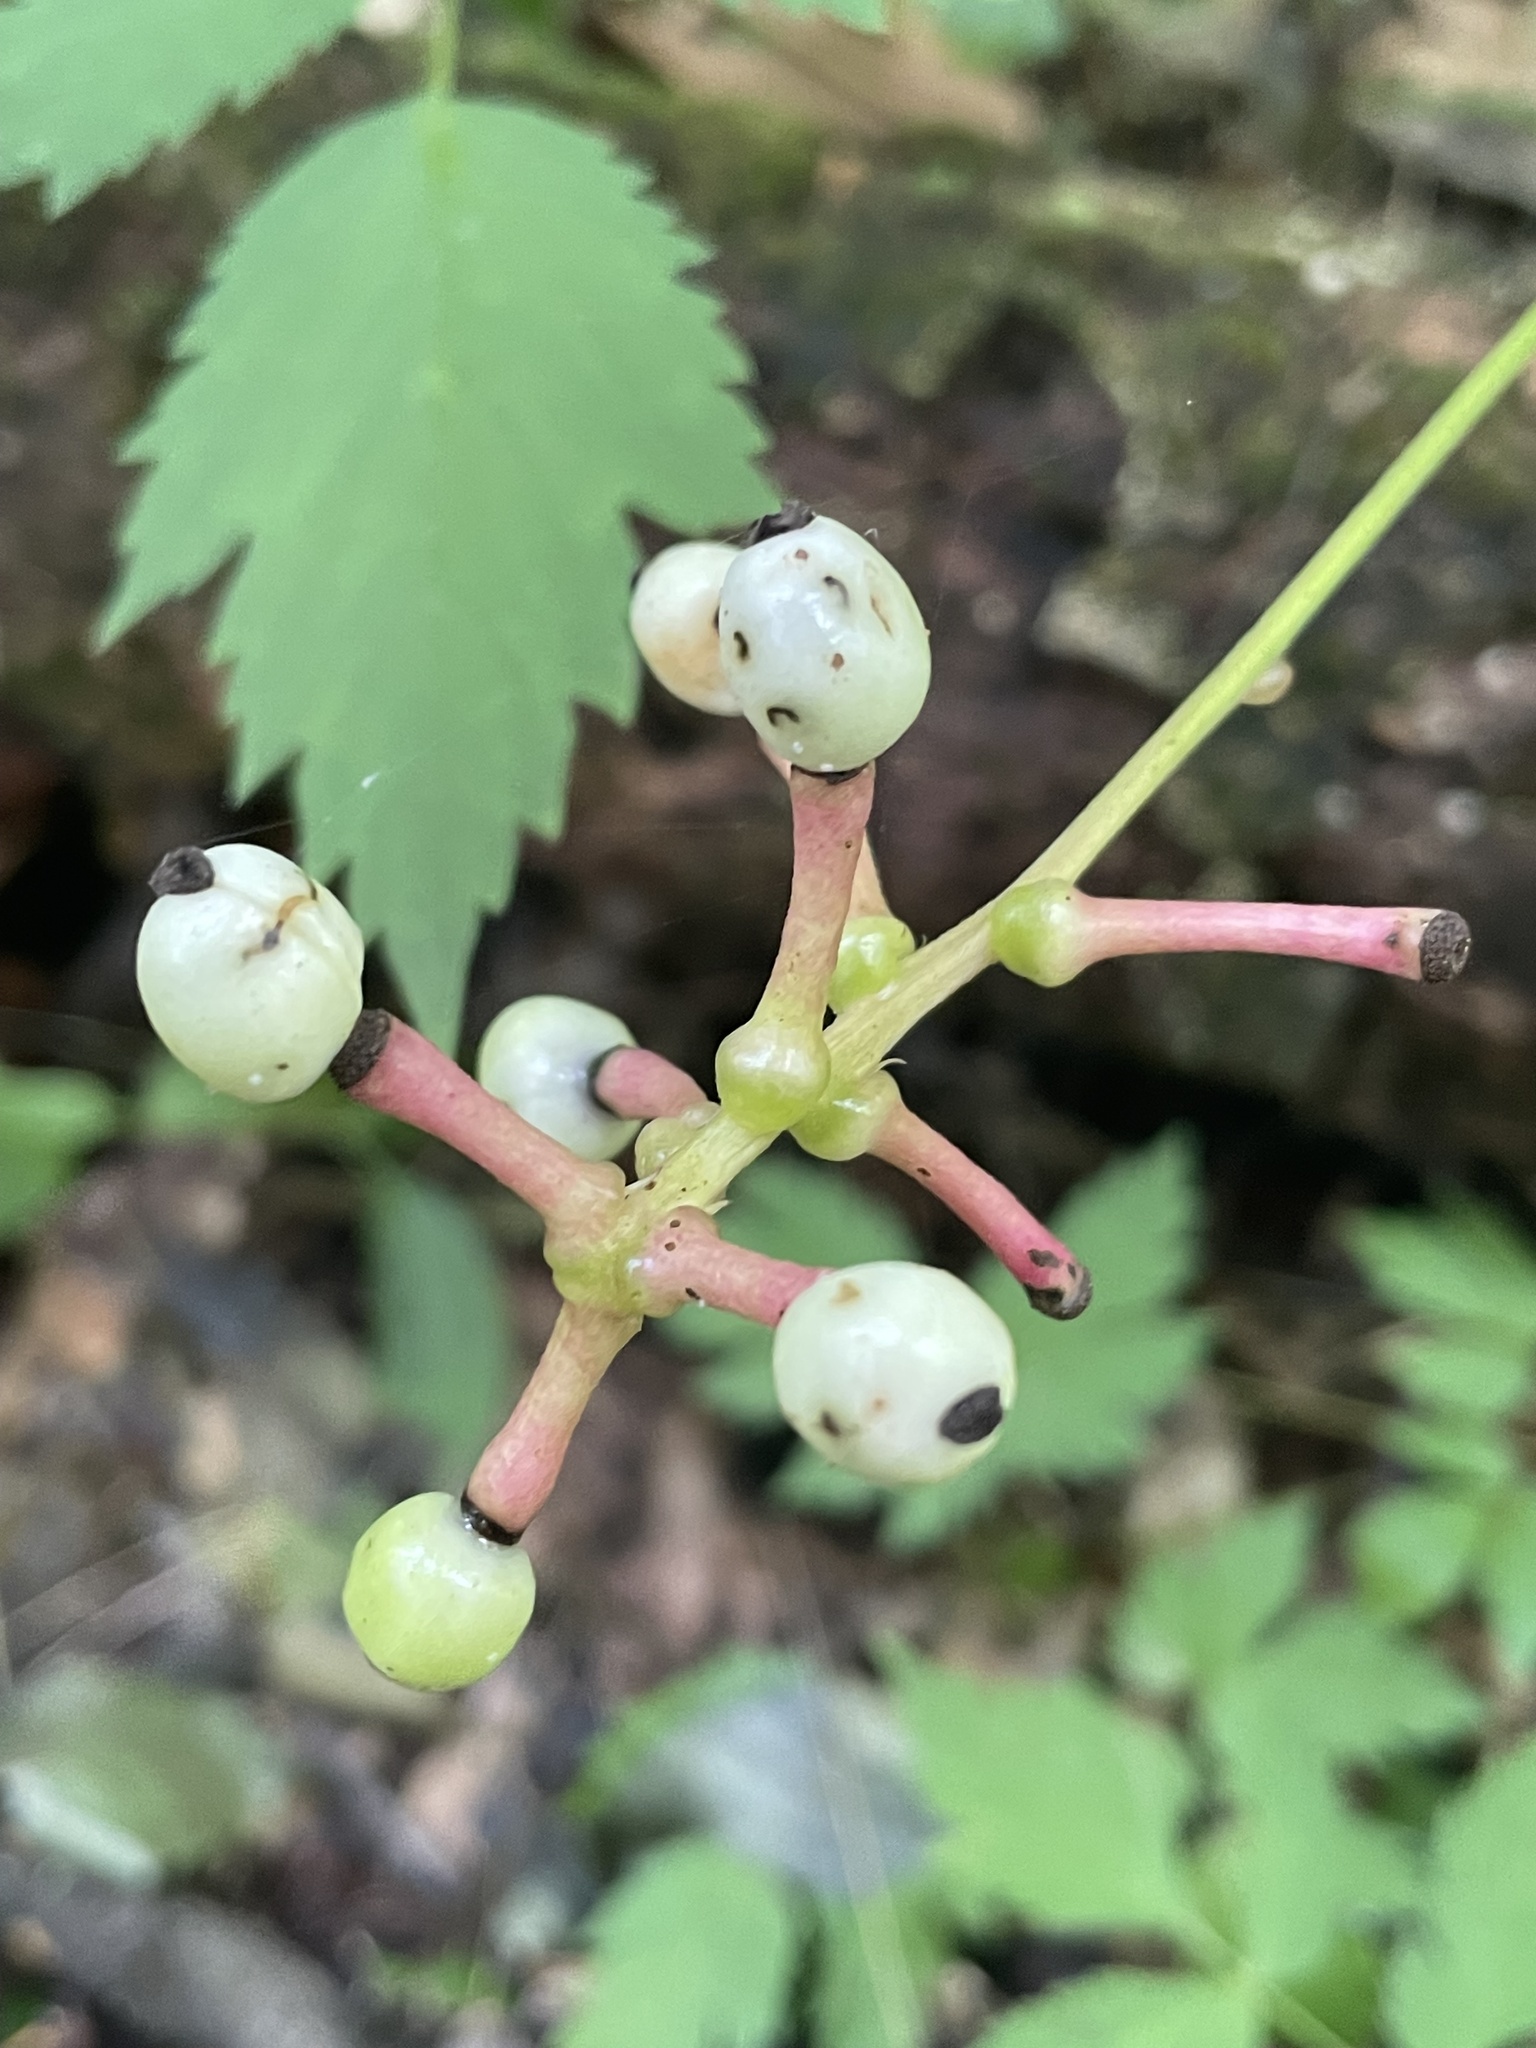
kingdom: Plantae
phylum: Tracheophyta
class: Magnoliopsida
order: Ranunculales
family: Ranunculaceae
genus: Actaea
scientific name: Actaea pachypoda
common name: Doll's-eyes
